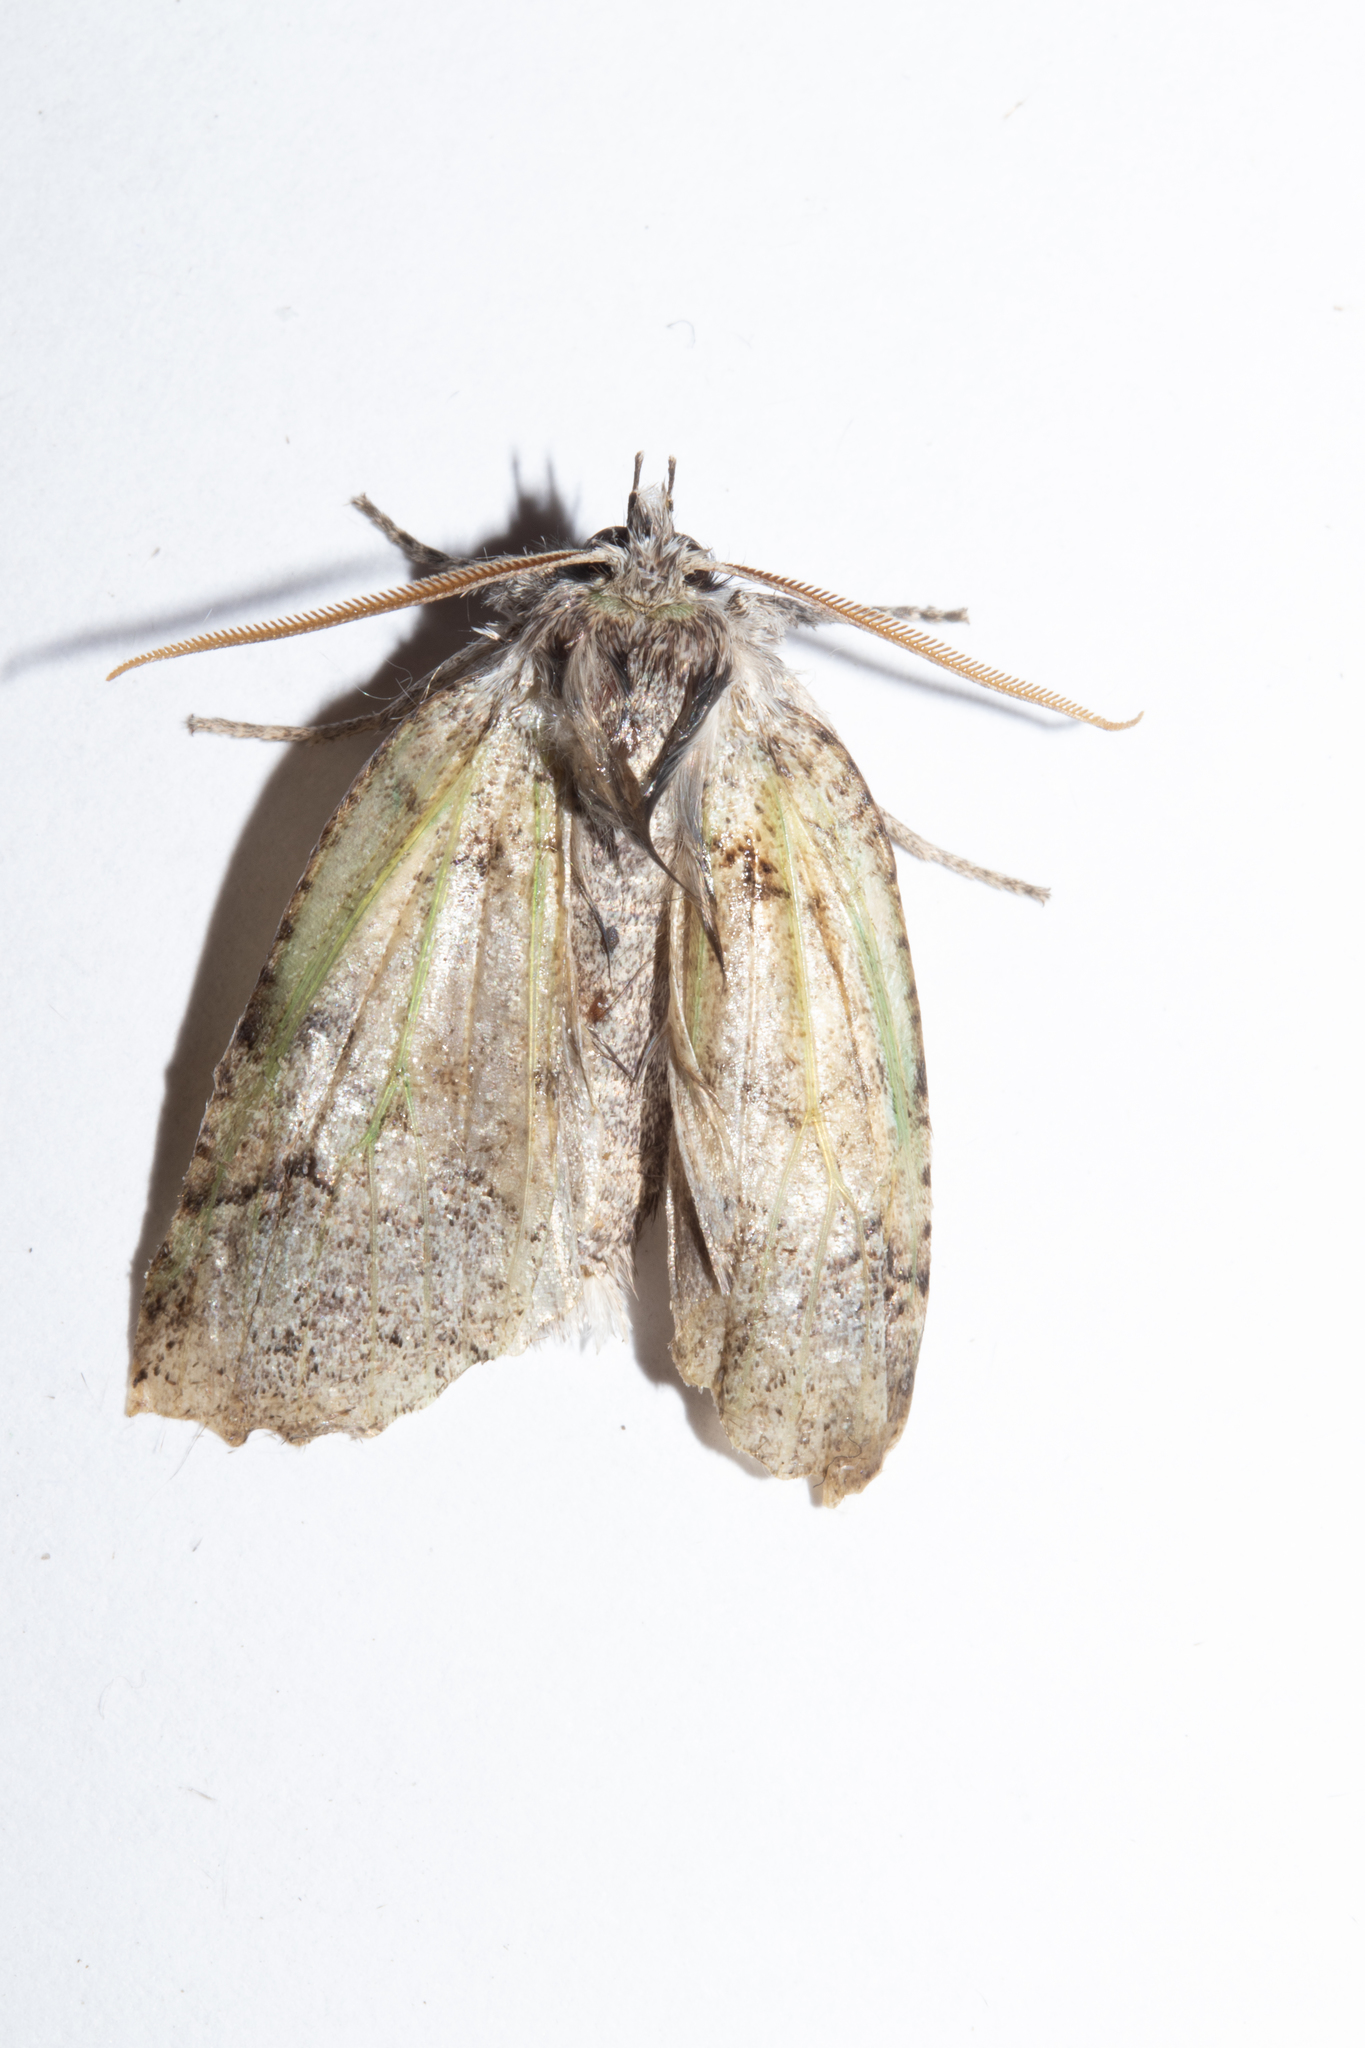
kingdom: Animalia
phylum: Arthropoda
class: Insecta
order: Lepidoptera
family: Geometridae
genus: Declana
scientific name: Declana floccosa
